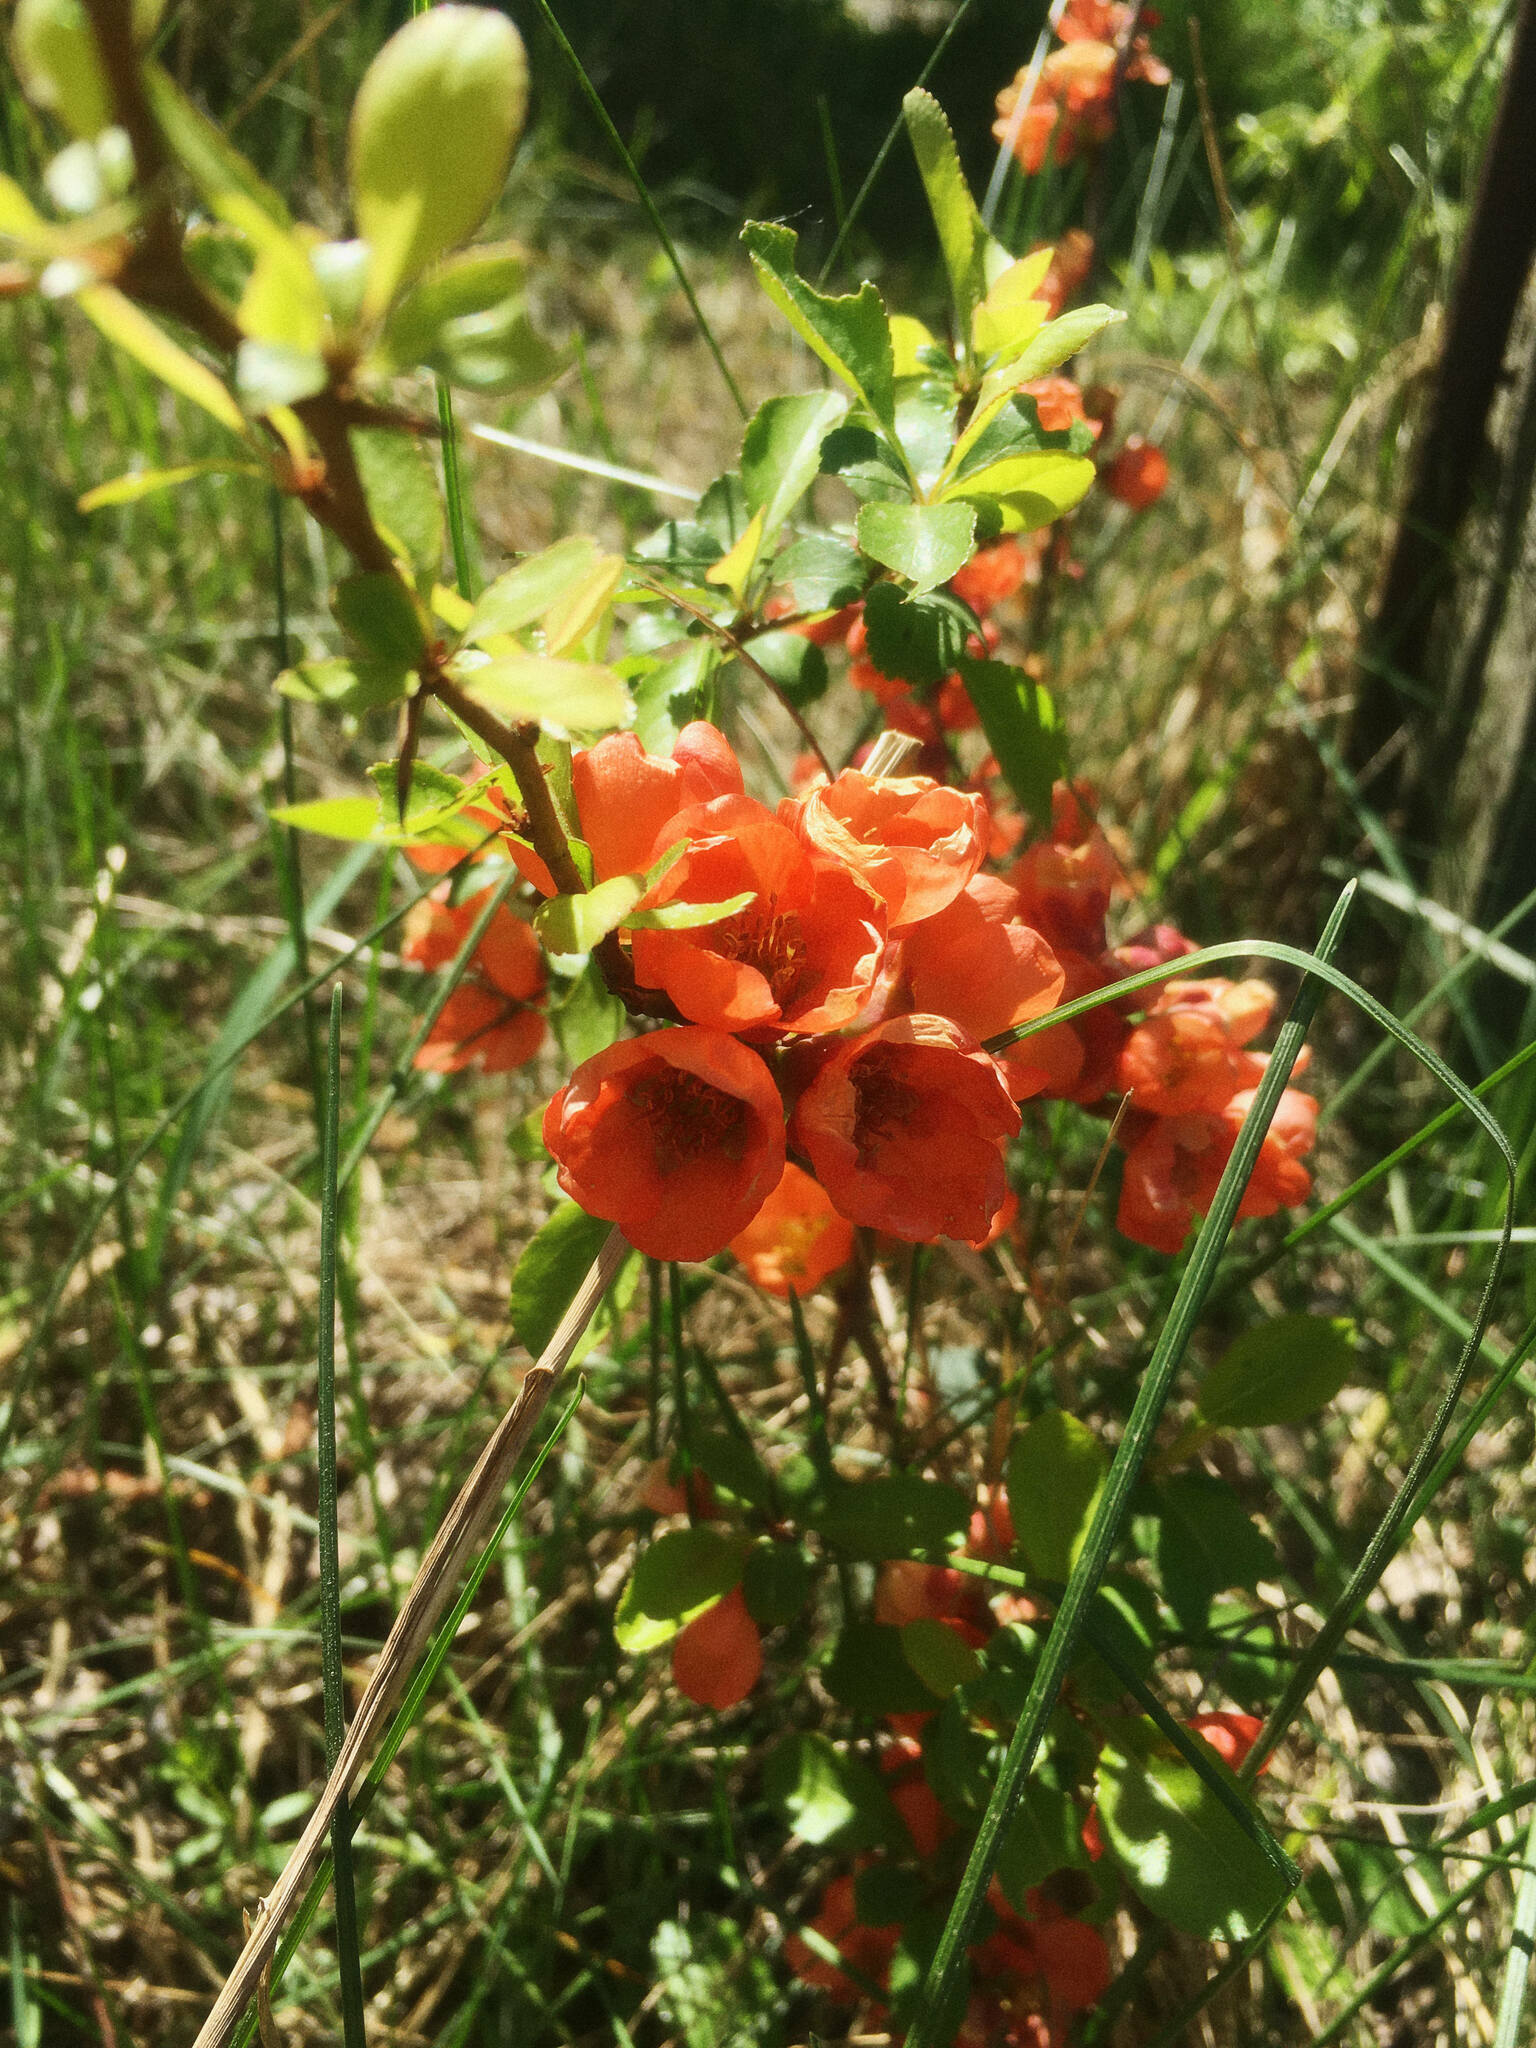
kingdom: Plantae
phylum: Tracheophyta
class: Magnoliopsida
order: Rosales
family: Rosaceae
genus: Chaenomeles
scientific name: Chaenomeles japonica
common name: Japanese quince
